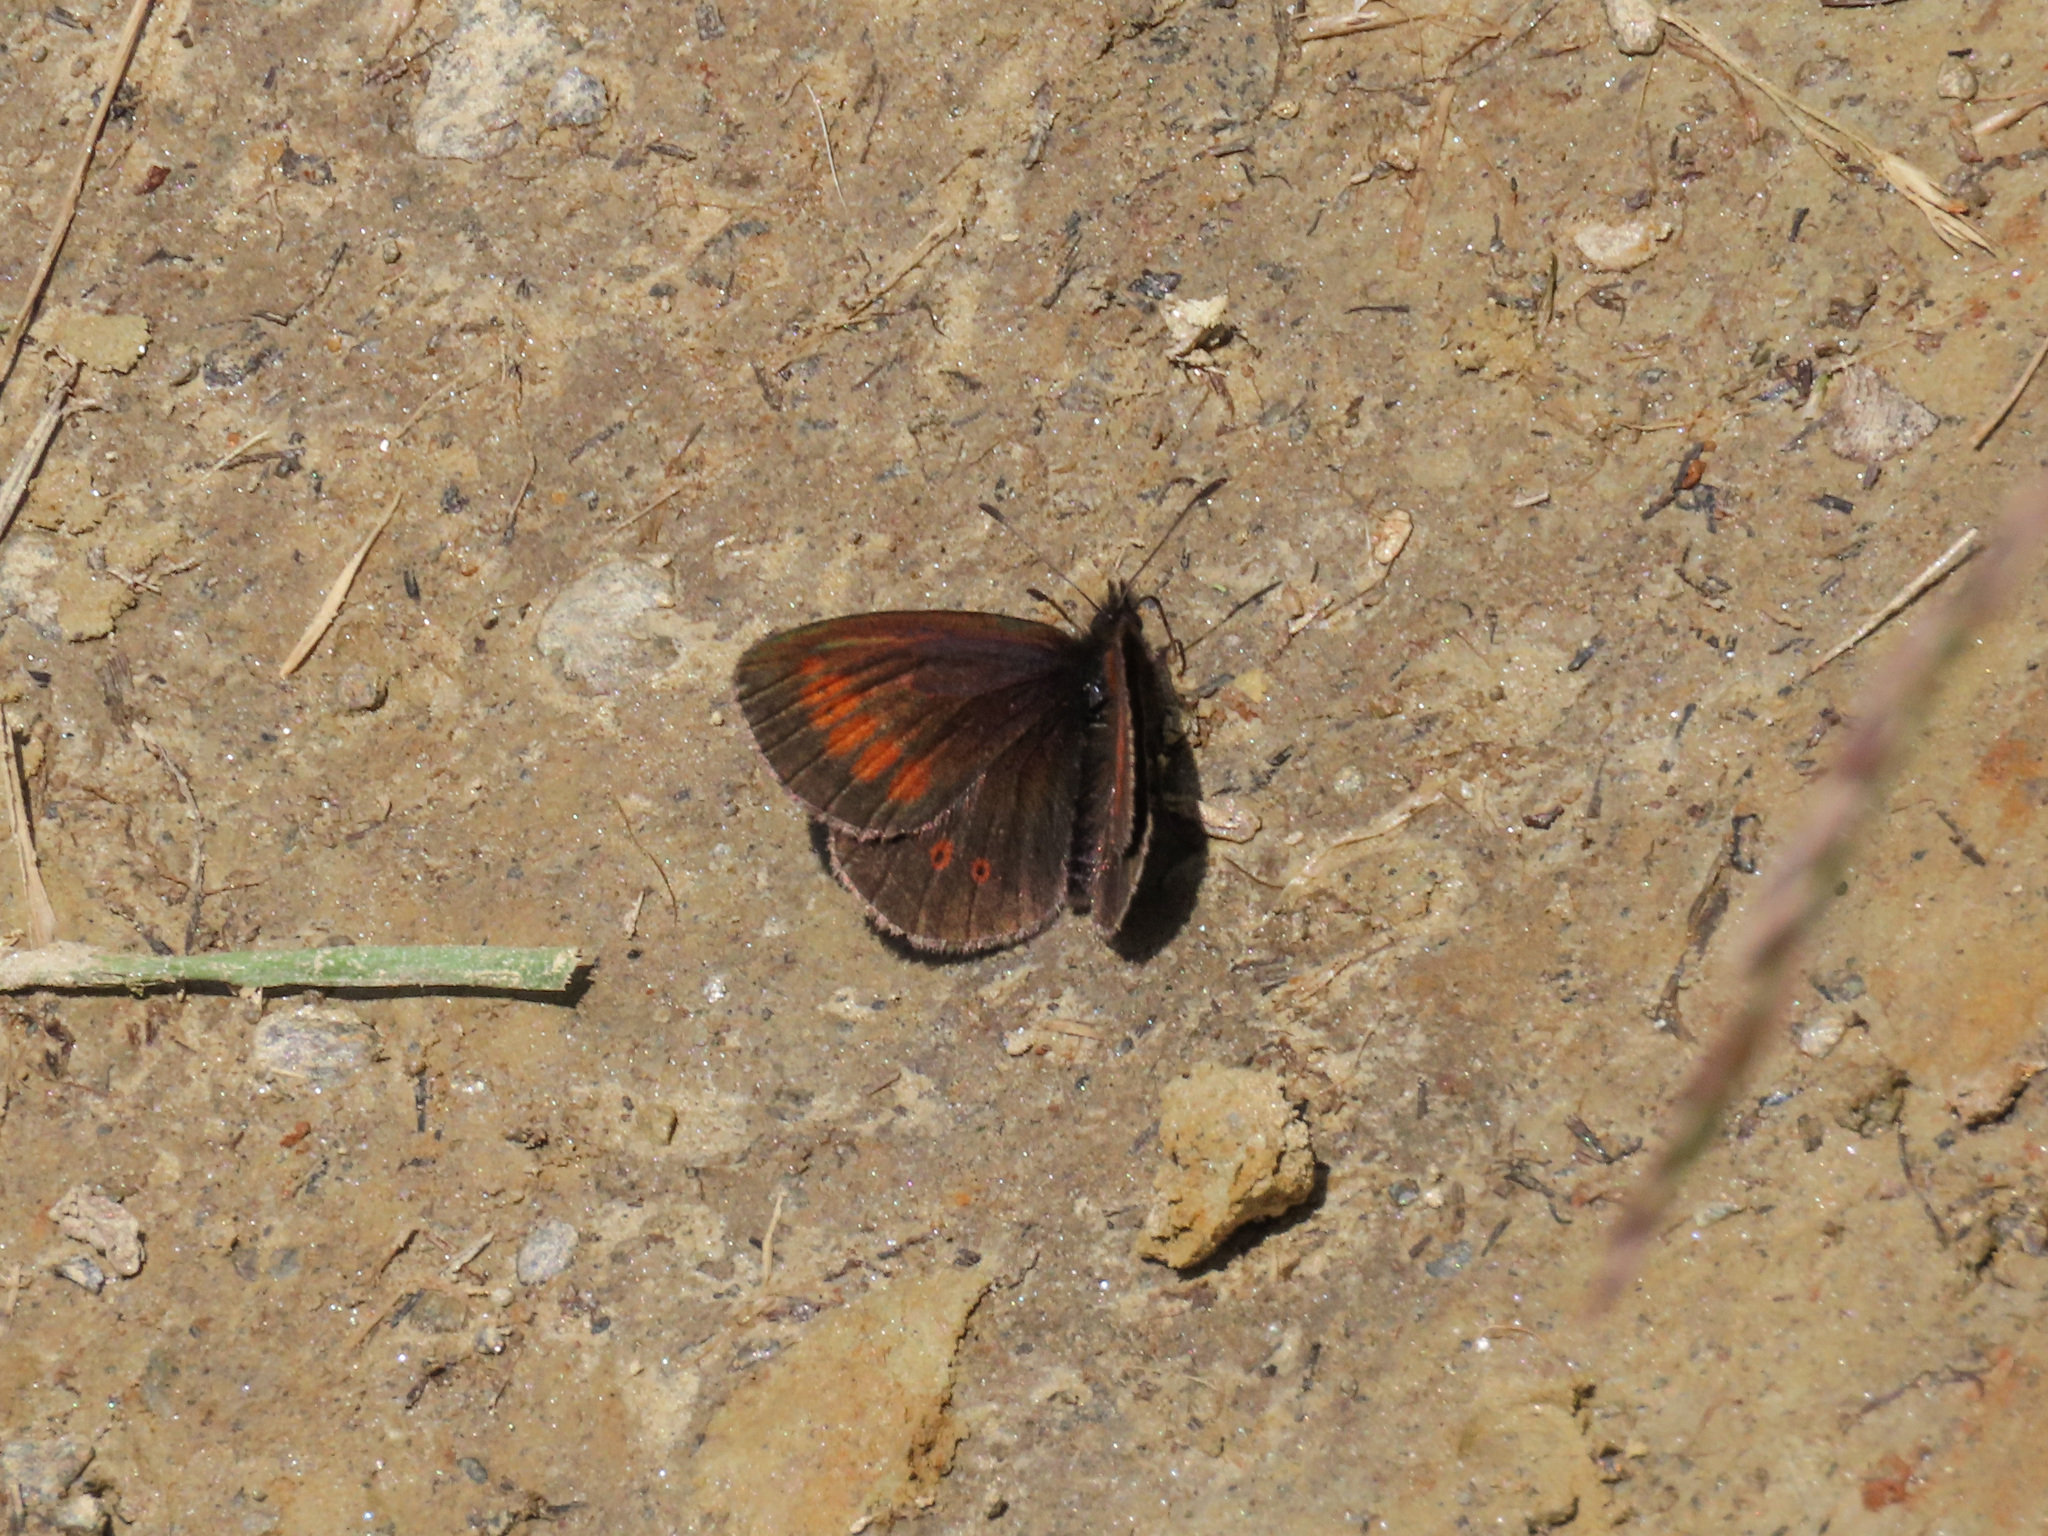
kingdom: Animalia
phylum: Arthropoda
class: Insecta
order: Lepidoptera
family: Nymphalidae
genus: Erebia
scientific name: Erebia melampus
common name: Lesser mountain ringlet
